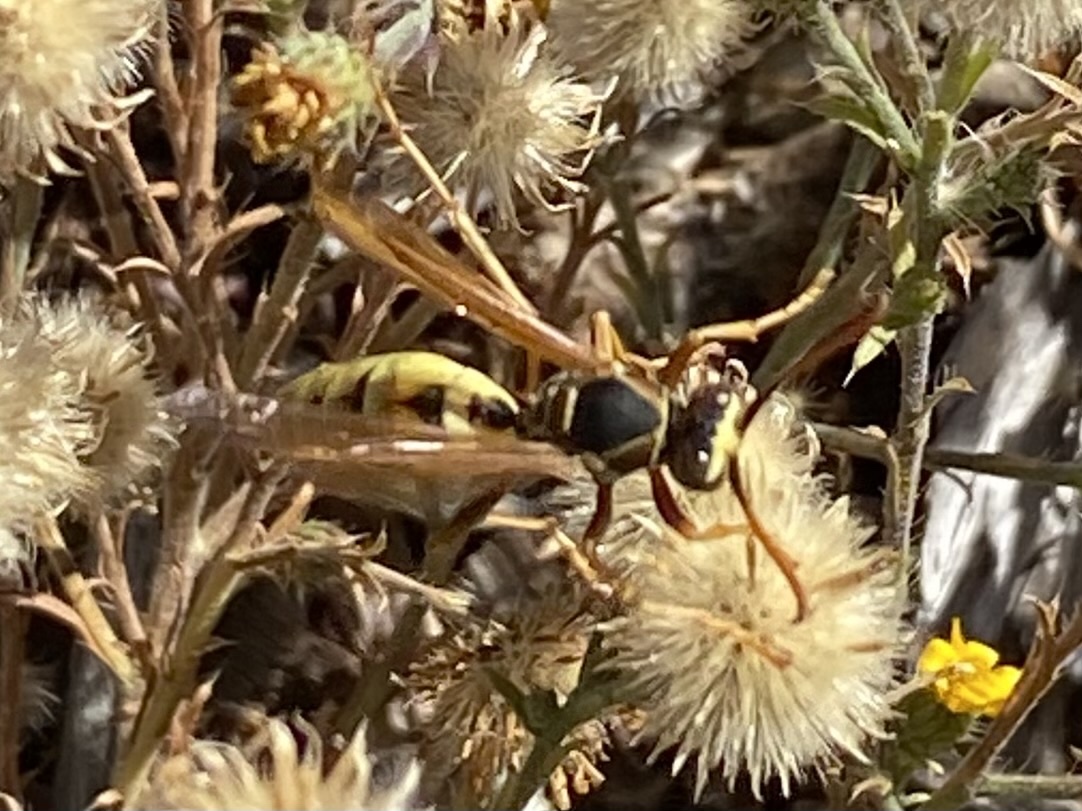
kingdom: Animalia
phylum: Arthropoda
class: Insecta
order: Hymenoptera
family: Eumenidae
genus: Polistes
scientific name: Polistes aurifer
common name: Paper wasp
